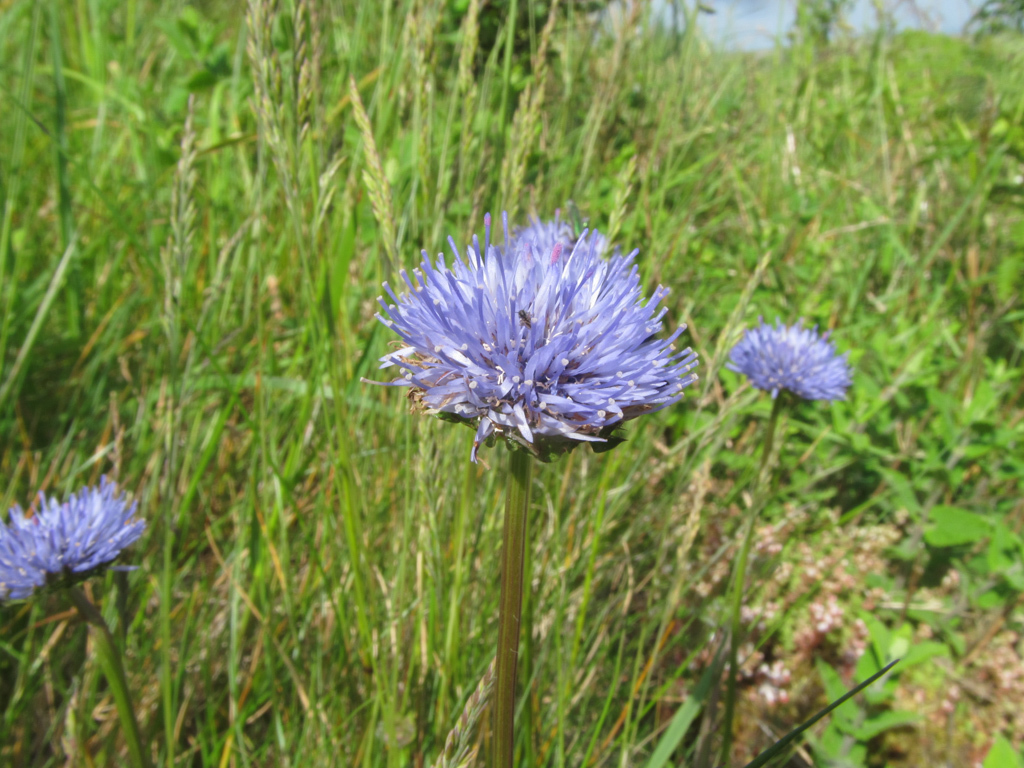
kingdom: Plantae
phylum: Tracheophyta
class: Magnoliopsida
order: Asterales
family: Campanulaceae
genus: Jasione
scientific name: Jasione montana
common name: Sheep's-bit
